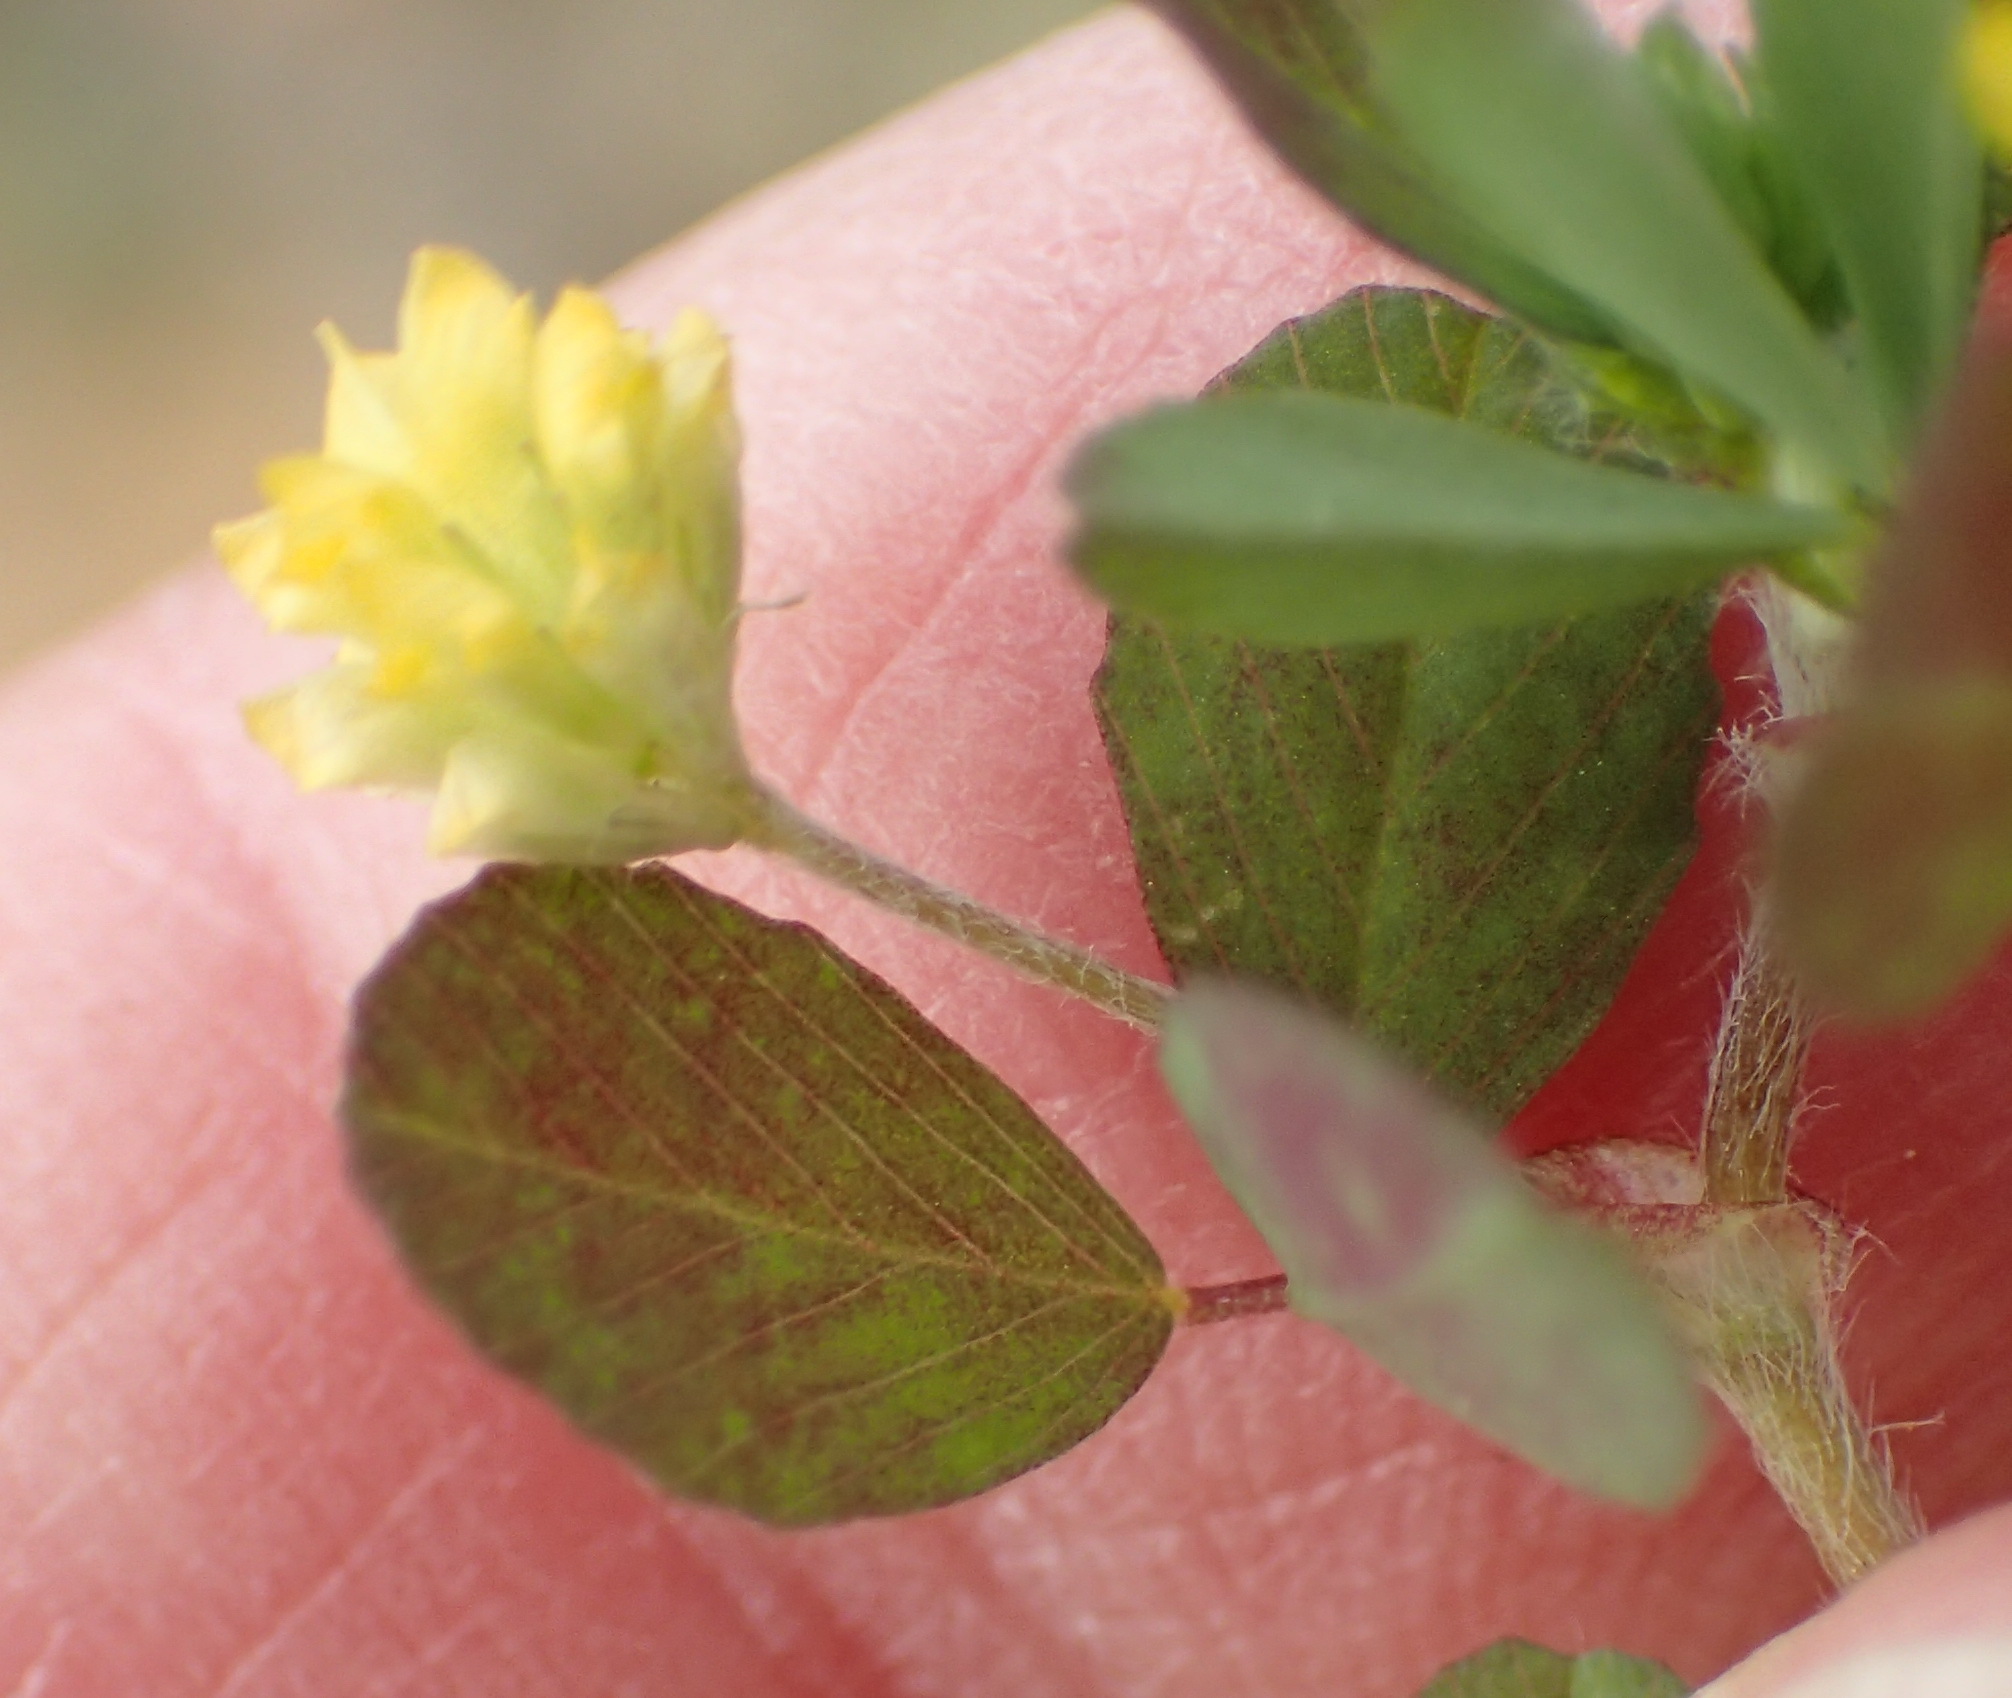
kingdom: Plantae
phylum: Tracheophyta
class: Magnoliopsida
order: Fabales
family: Fabaceae
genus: Trifolium
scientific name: Trifolium dubium
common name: Suckling clover
